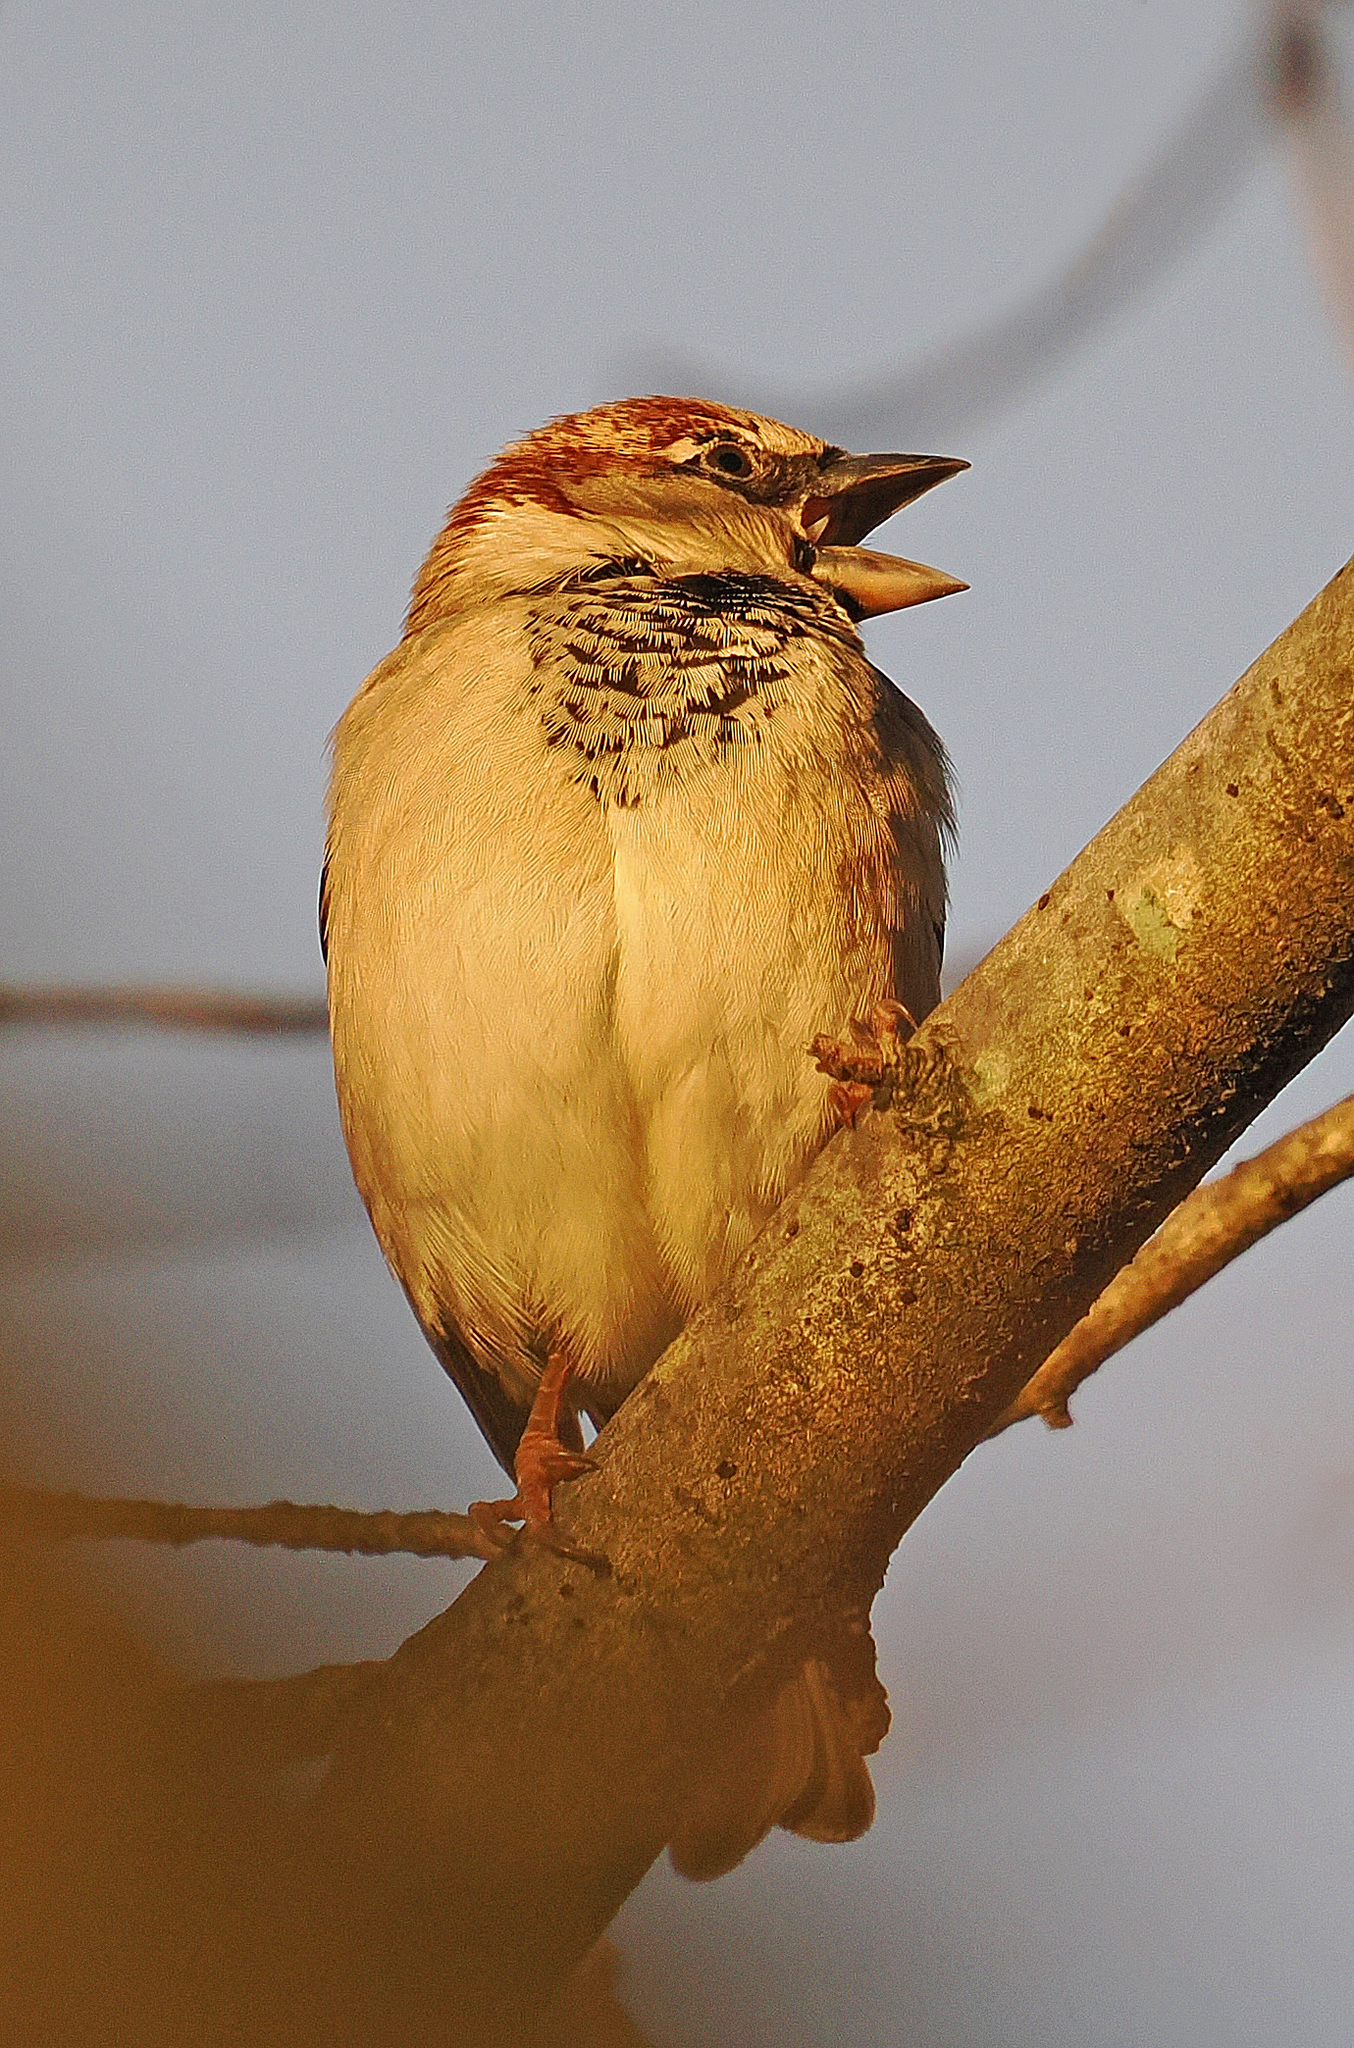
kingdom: Animalia
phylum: Chordata
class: Aves
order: Passeriformes
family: Passeridae
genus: Passer
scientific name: Passer domesticus
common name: House sparrow
